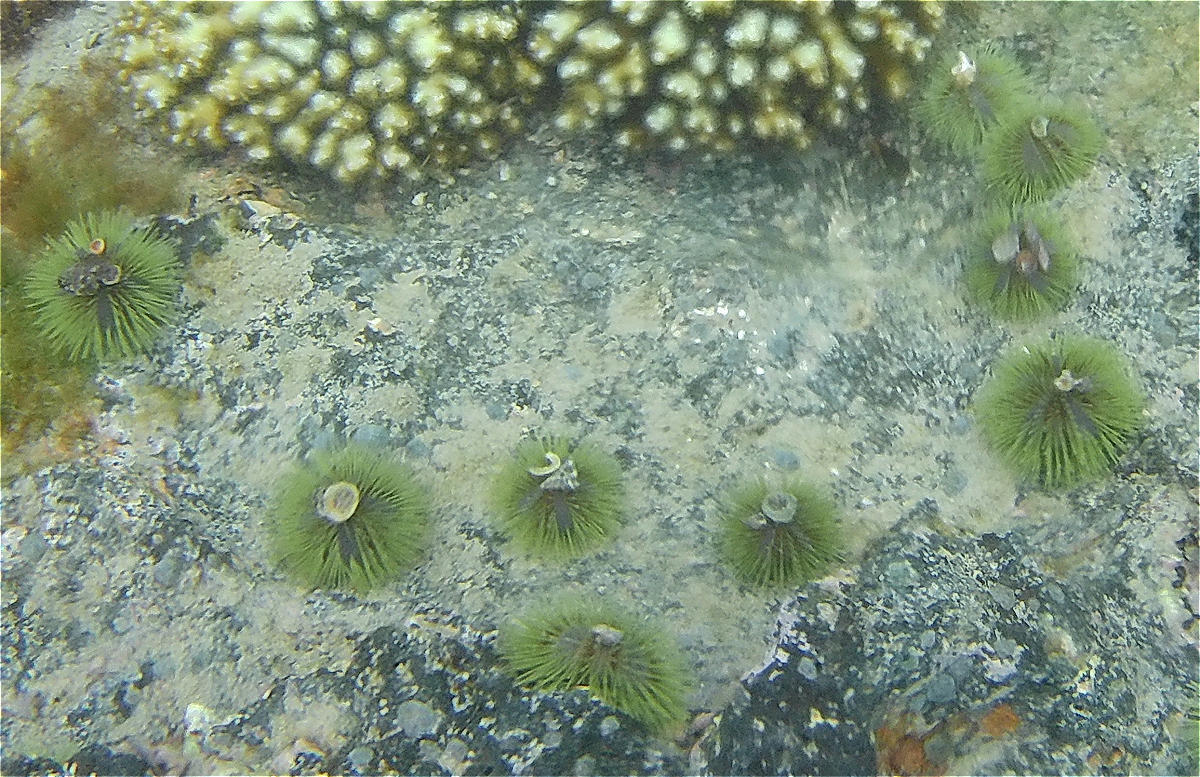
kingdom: Animalia
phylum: Echinodermata
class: Echinoidea
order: Camarodonta
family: Toxopneustidae
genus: Lytechinus
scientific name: Lytechinus semituberculatus
